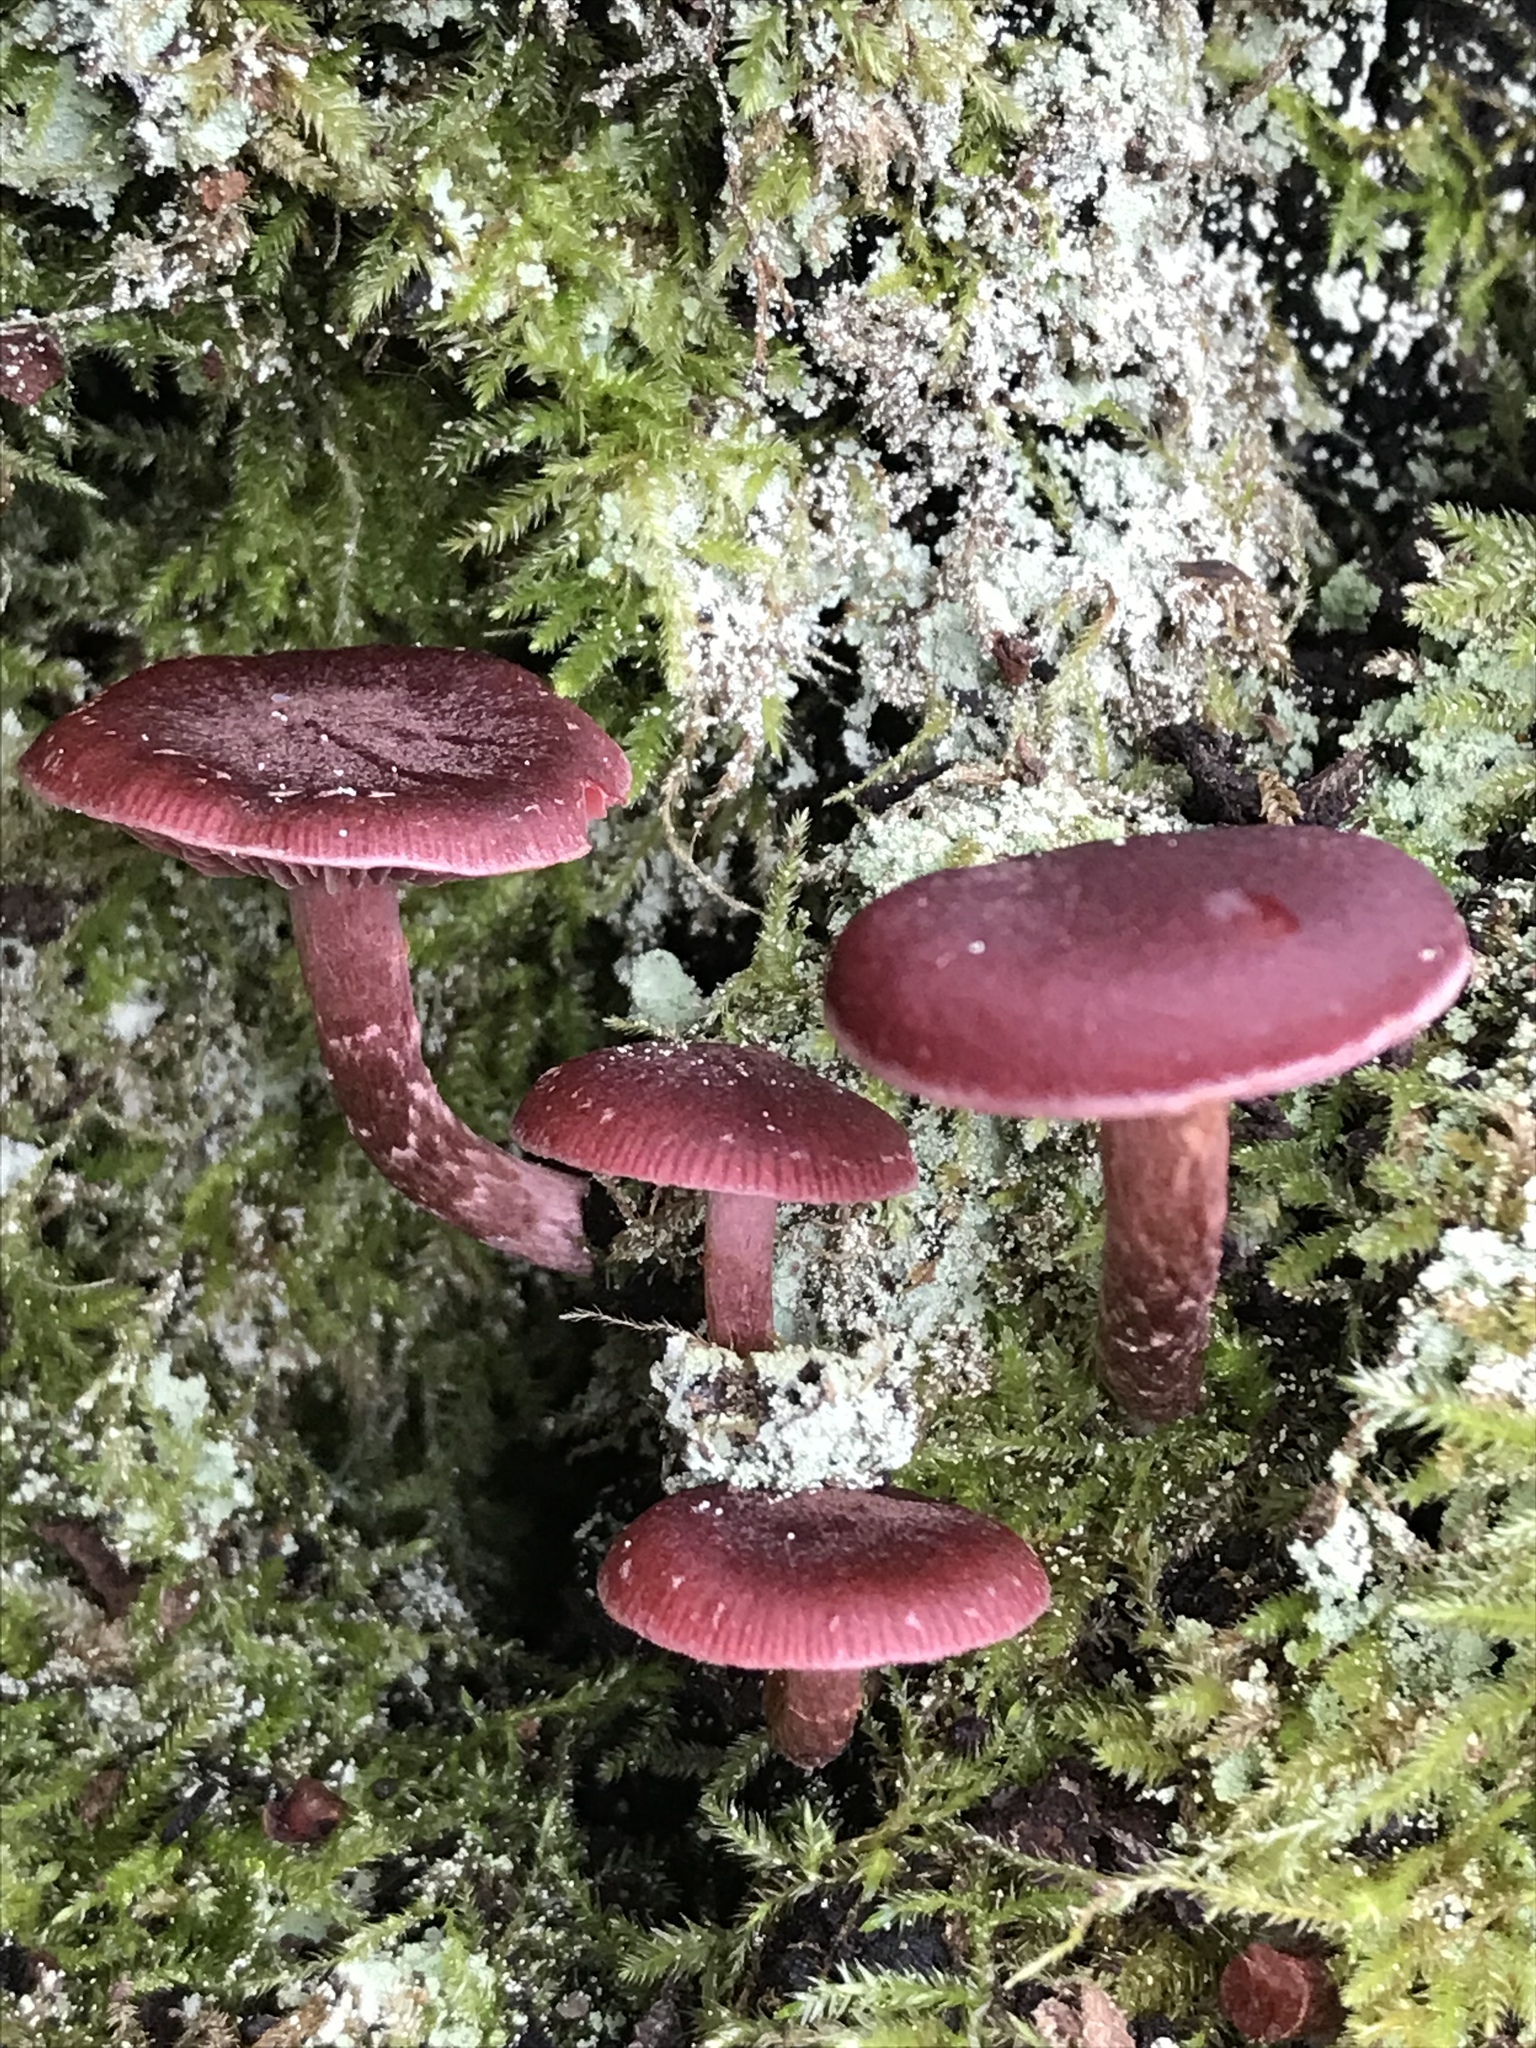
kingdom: Fungi
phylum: Basidiomycota
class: Agaricomycetes
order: Agaricales
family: Tubariaceae
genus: Tubaria
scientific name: Tubaria punicea
